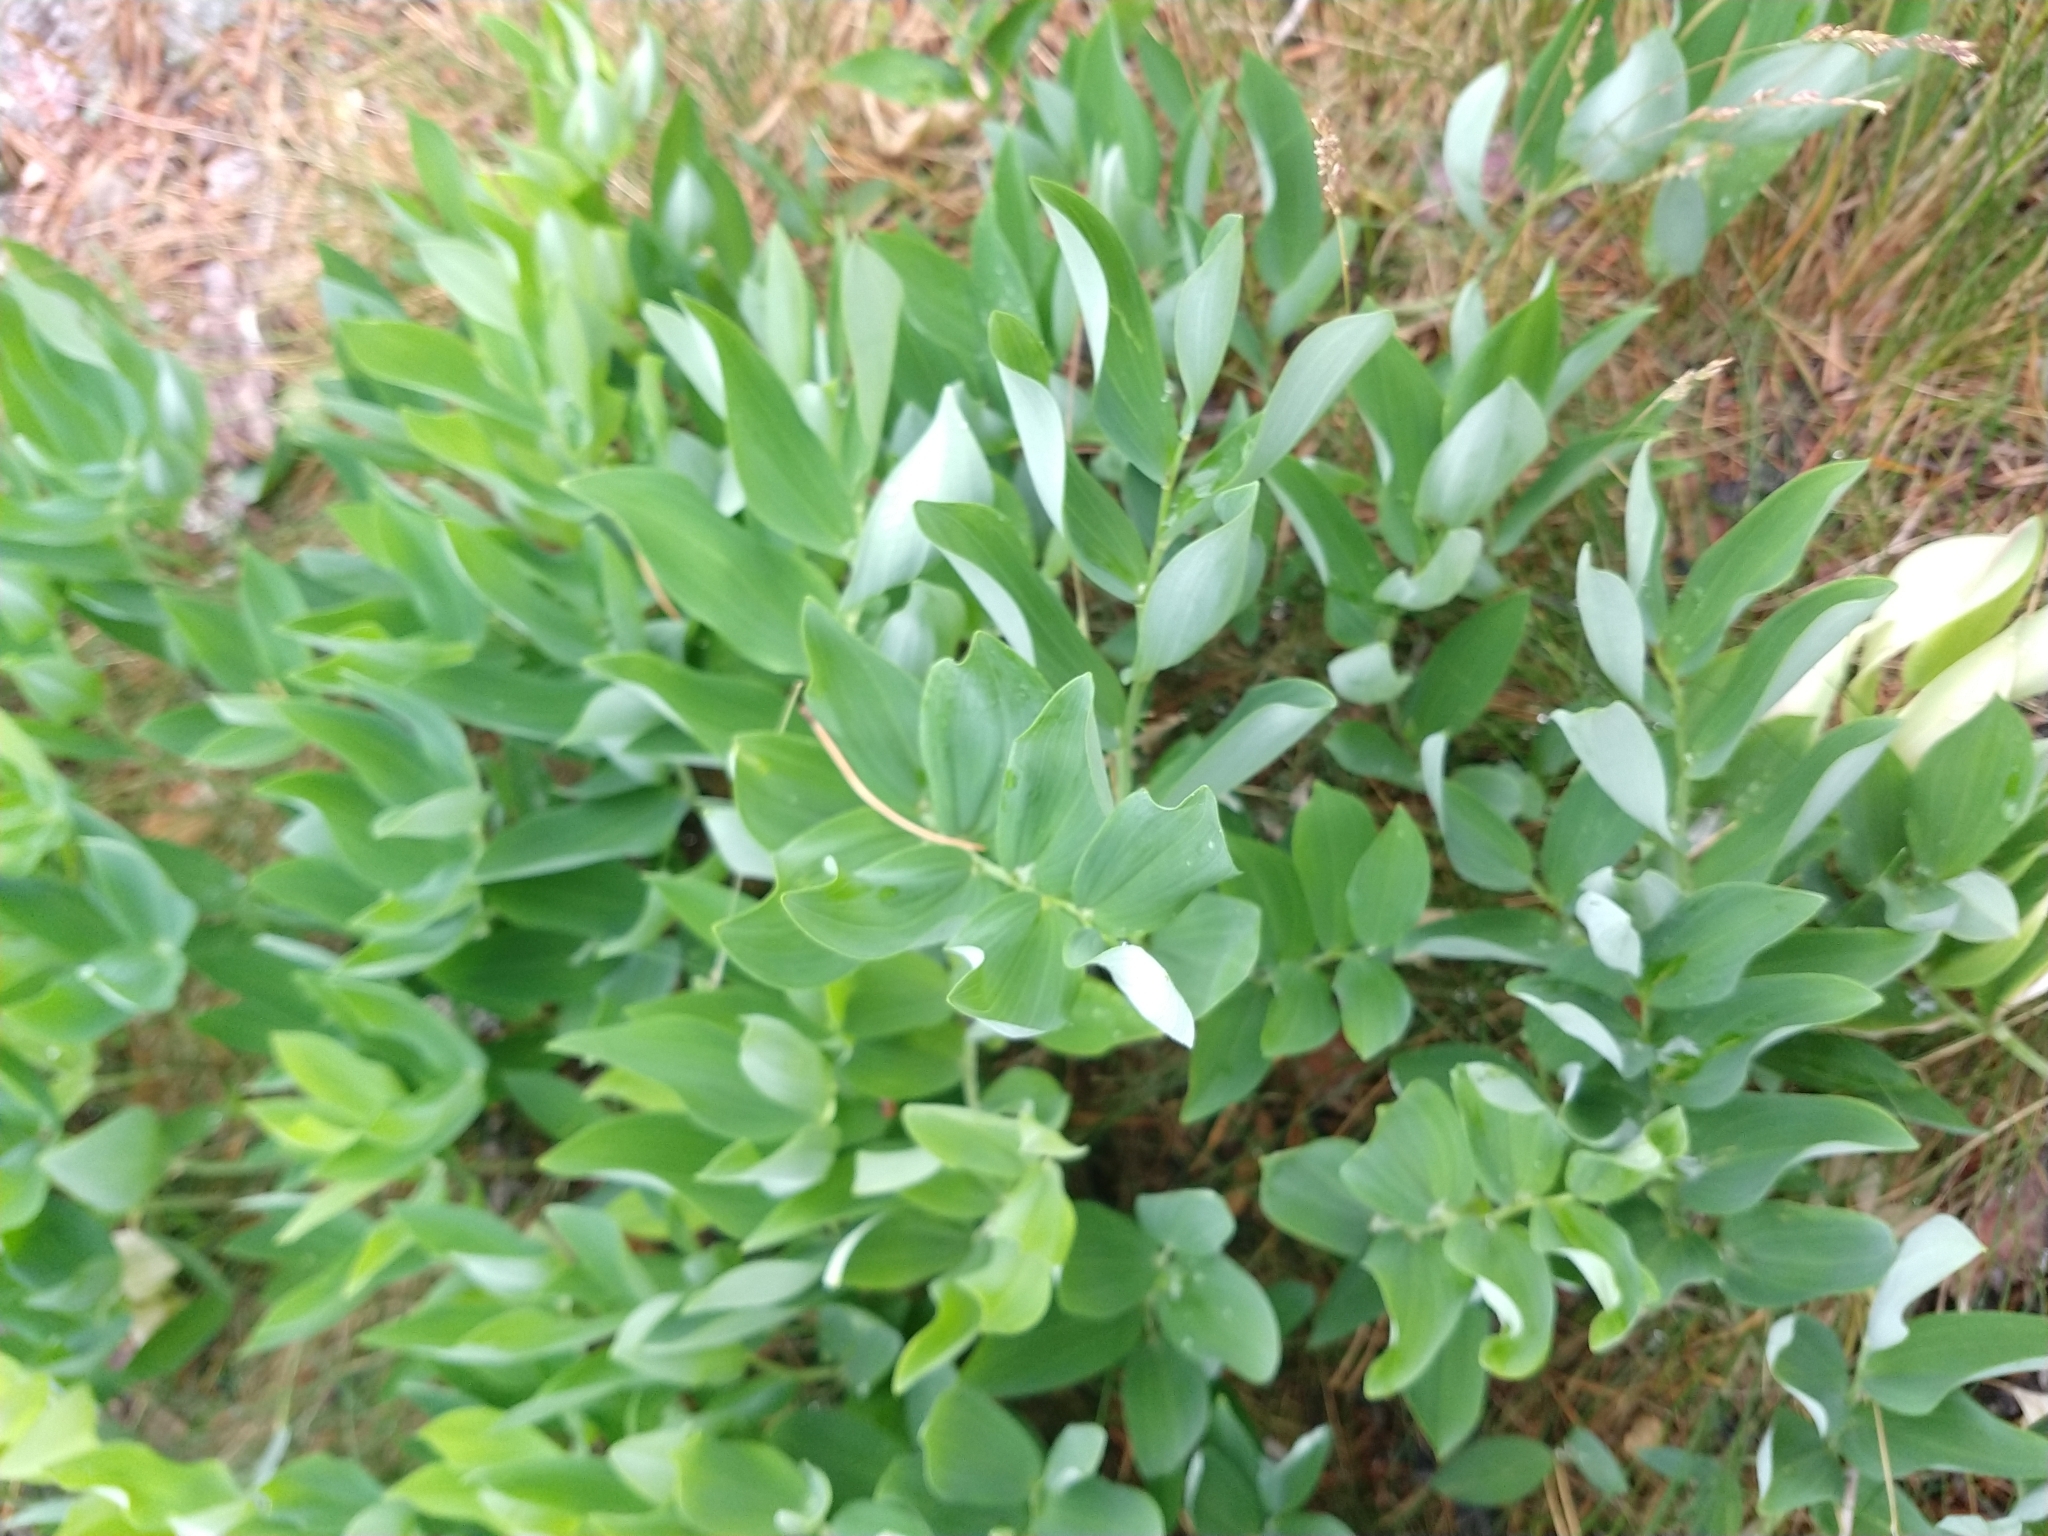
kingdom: Plantae
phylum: Tracheophyta
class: Liliopsida
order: Asparagales
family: Asparagaceae
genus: Polygonatum
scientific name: Polygonatum odoratum
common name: Angular solomon's-seal
